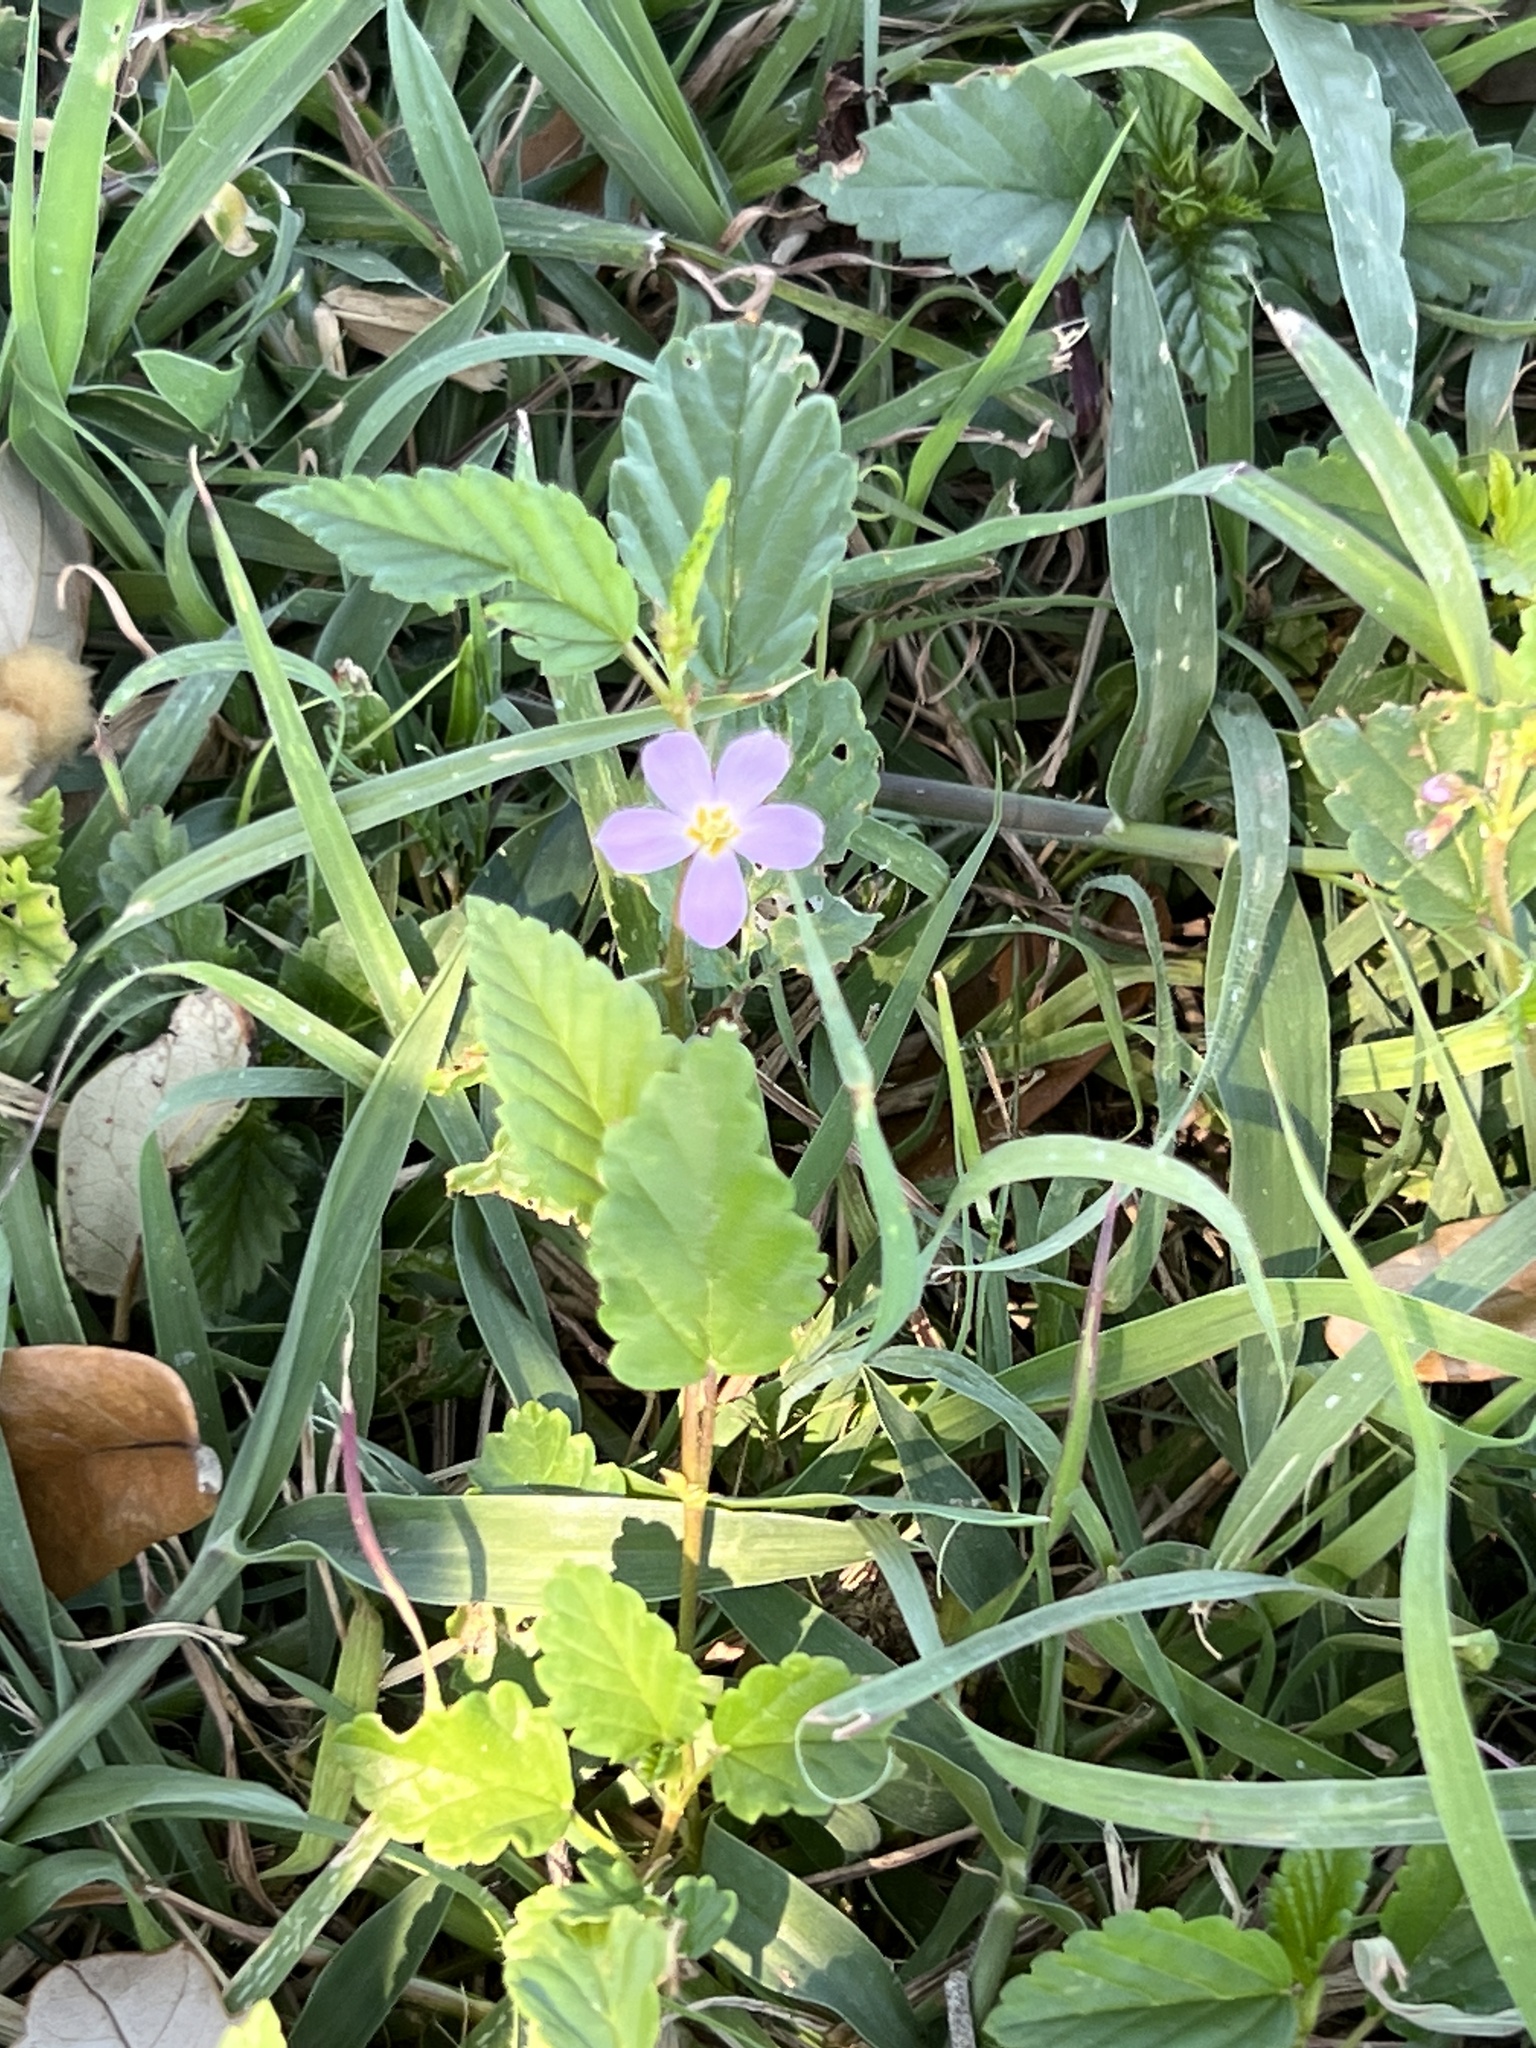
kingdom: Plantae
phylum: Tracheophyta
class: Magnoliopsida
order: Malvales
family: Malvaceae
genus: Melochia
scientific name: Melochia pyramidata
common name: Pyramidflower
